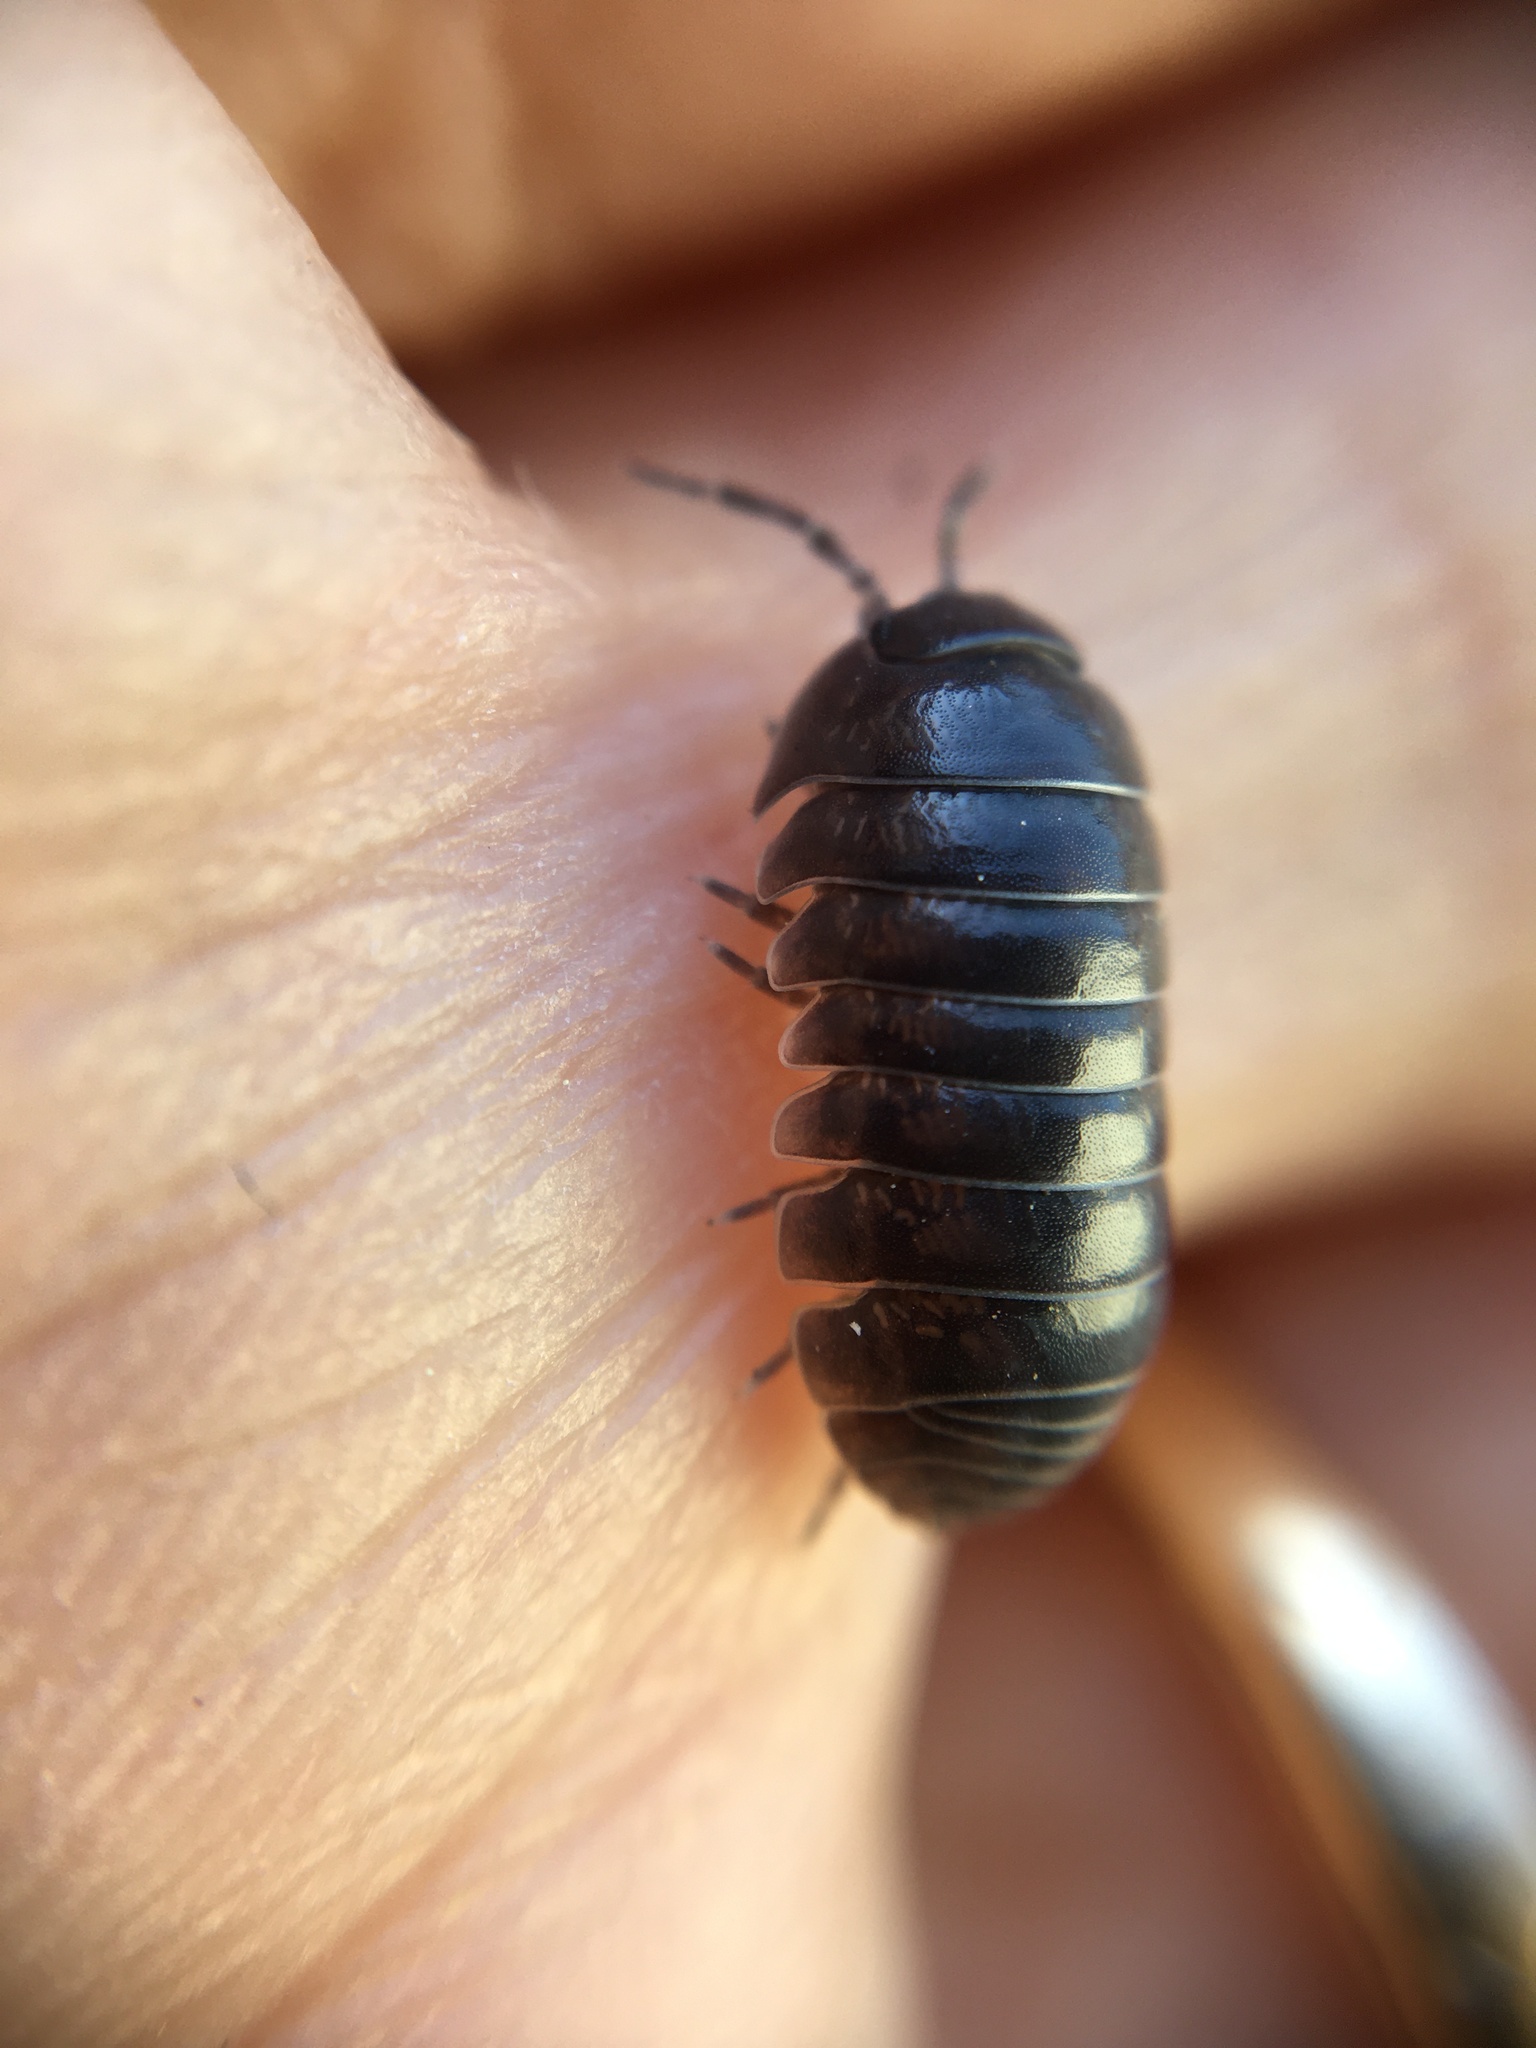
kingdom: Animalia
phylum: Arthropoda
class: Malacostraca
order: Isopoda
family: Armadillidiidae
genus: Armadillidium
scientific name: Armadillidium vulgare
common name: Common pill woodlouse
